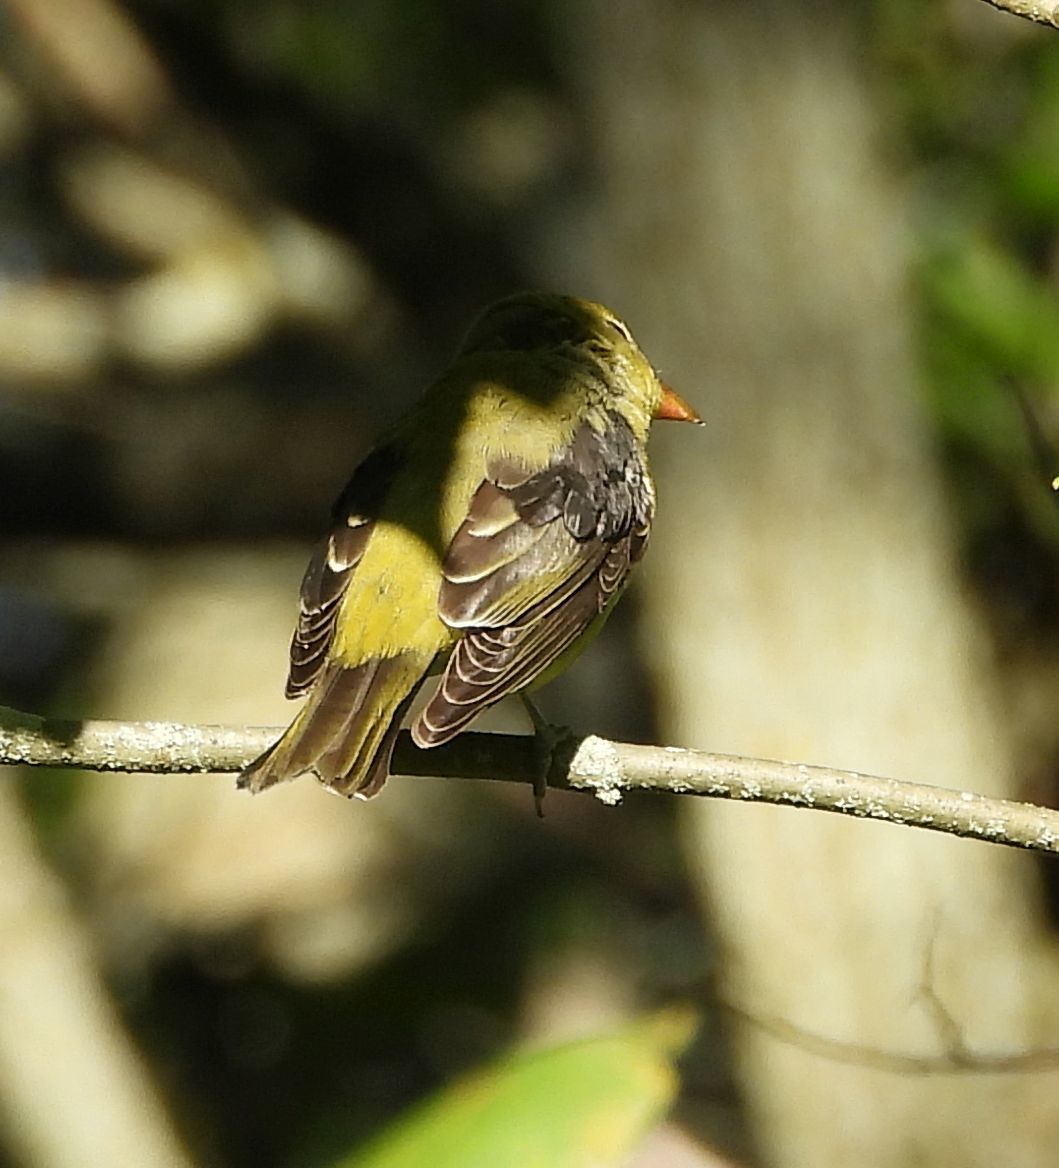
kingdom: Animalia
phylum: Chordata
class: Aves
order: Passeriformes
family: Cardinalidae
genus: Piranga
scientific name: Piranga olivacea
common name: Scarlet tanager
